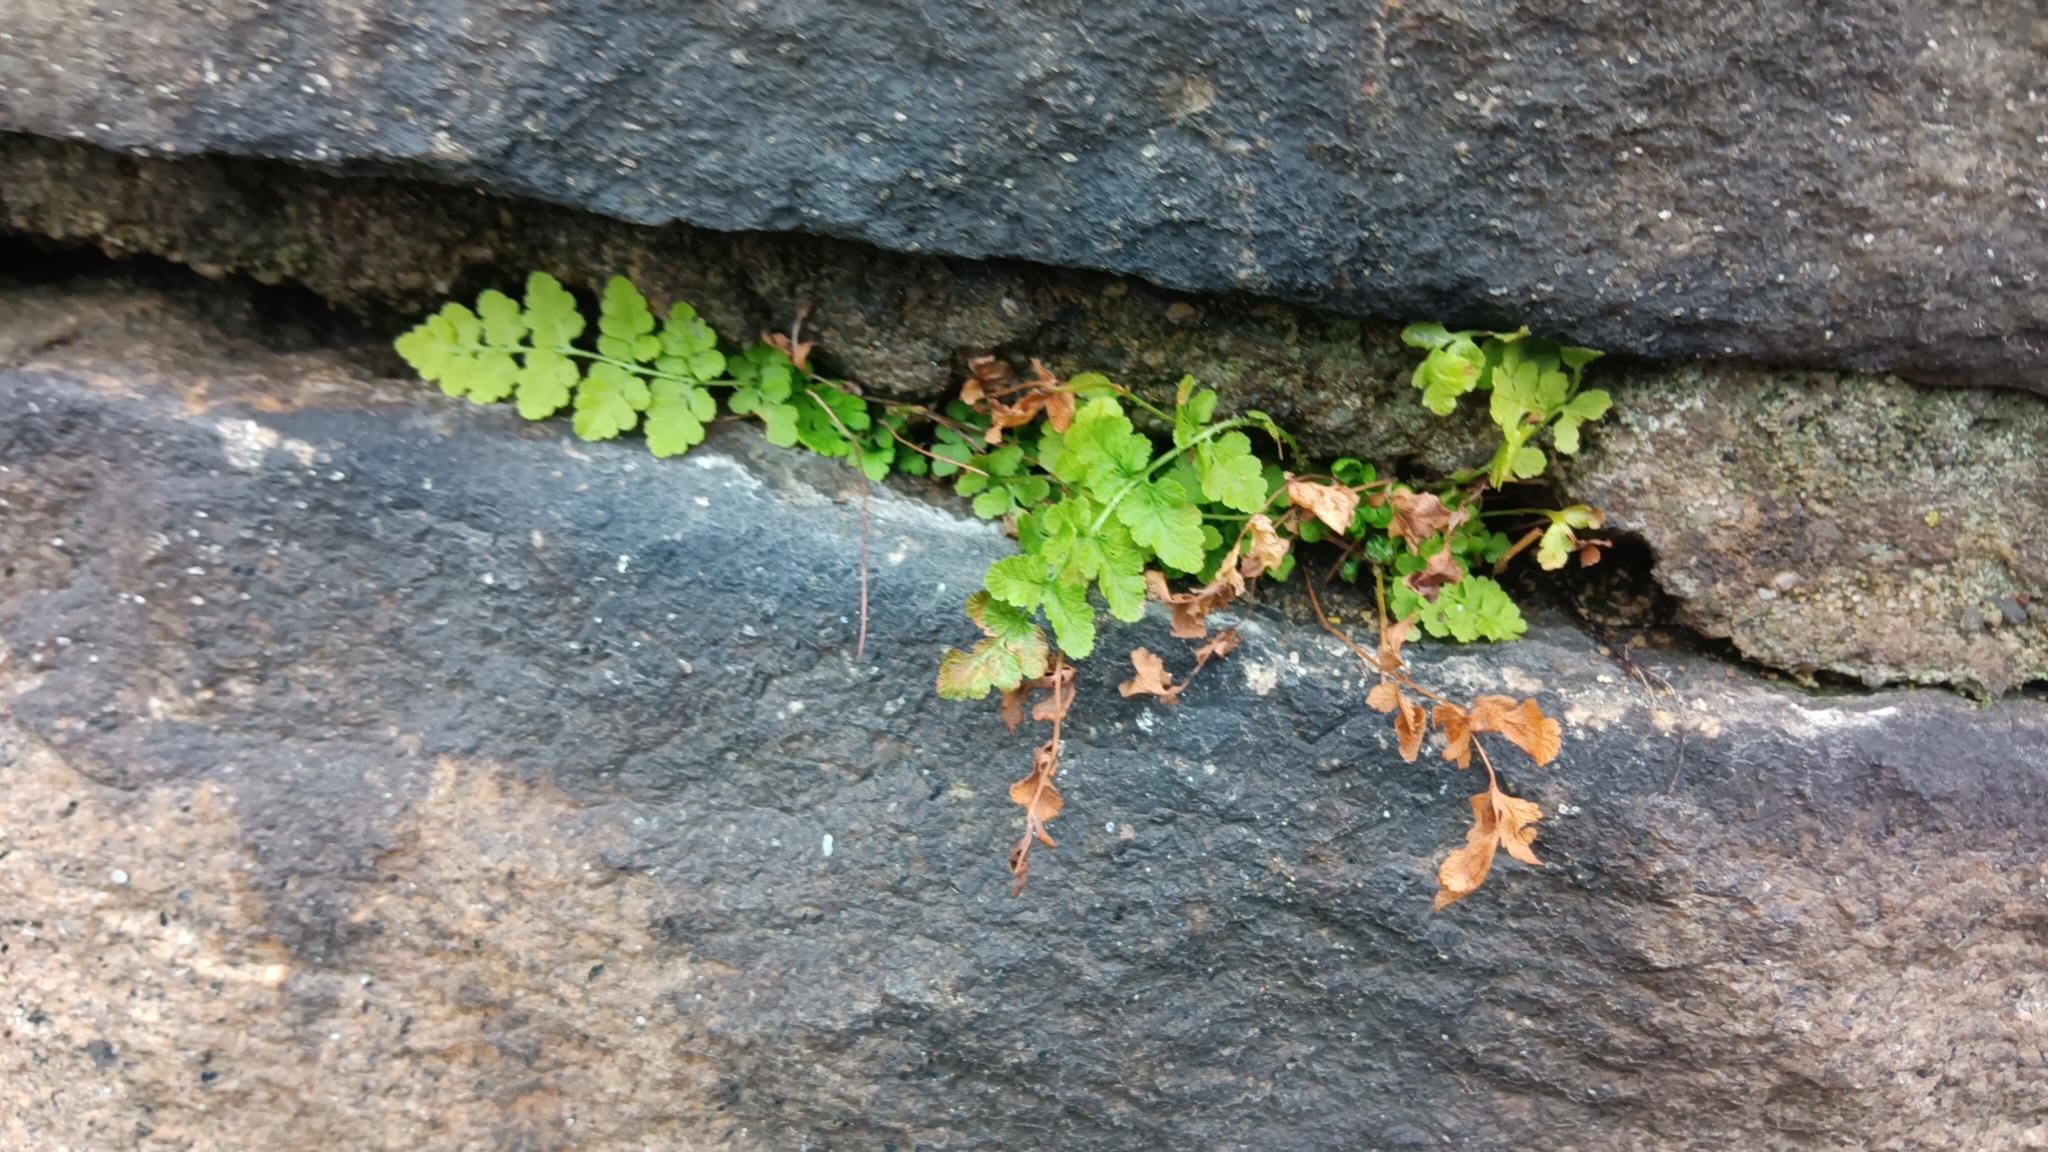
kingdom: Plantae
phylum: Tracheophyta
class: Polypodiopsida
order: Polypodiales
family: Woodsiaceae
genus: Physematium
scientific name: Physematium obtusum
